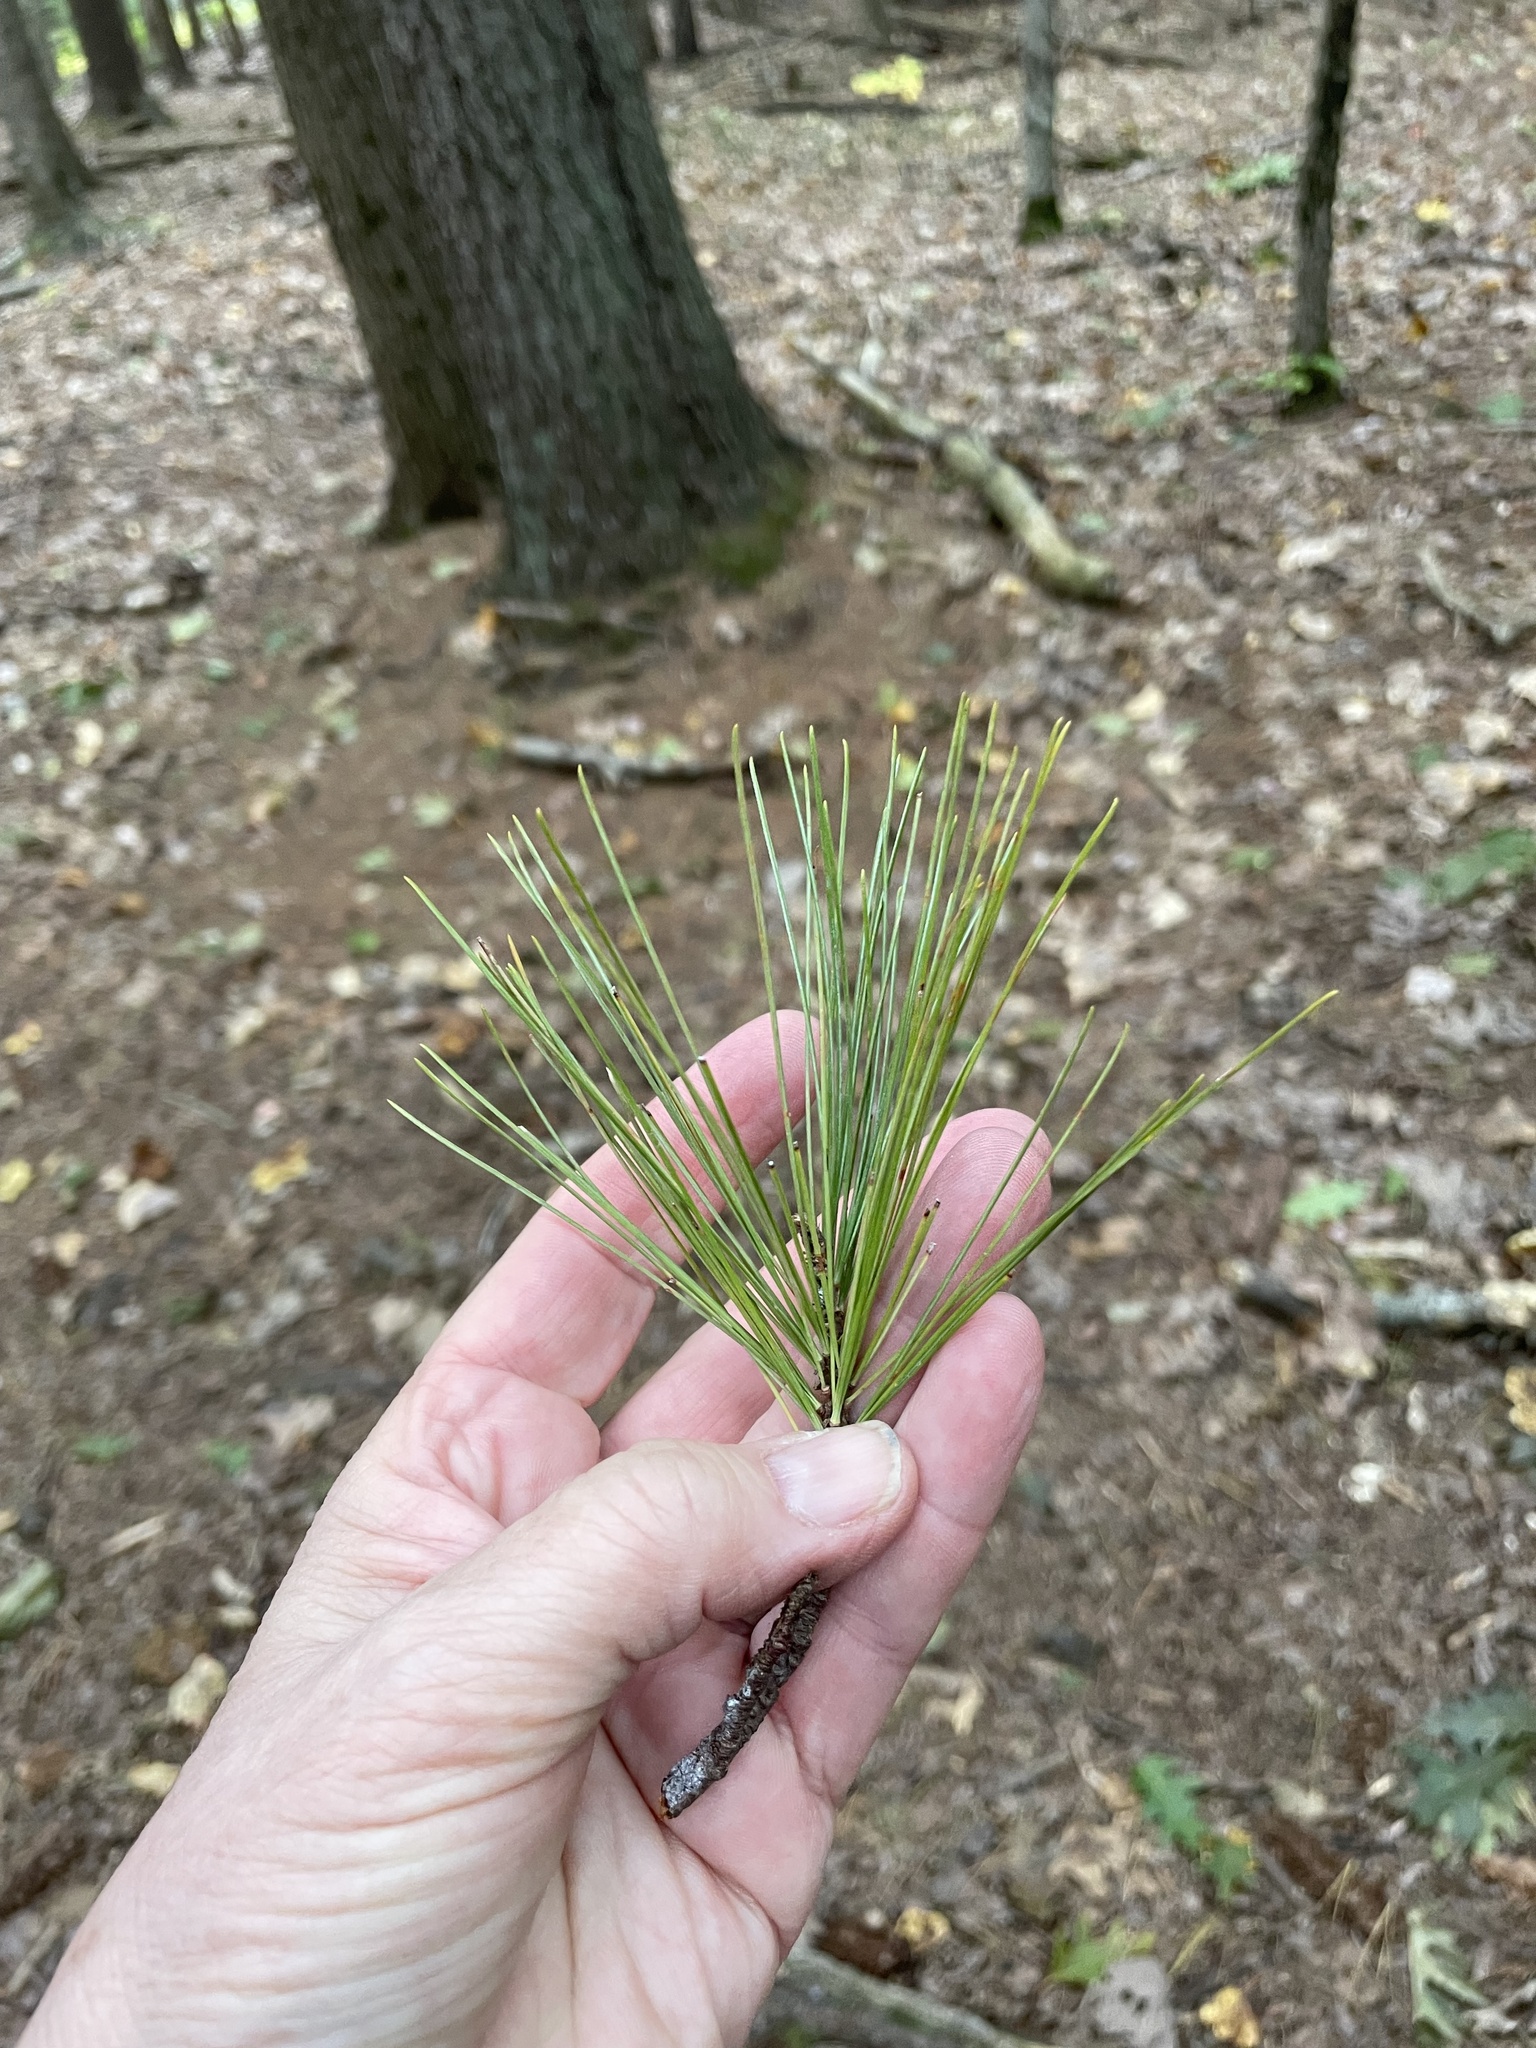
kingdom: Plantae
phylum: Tracheophyta
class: Pinopsida
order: Pinales
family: Pinaceae
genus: Pinus
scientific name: Pinus strobus
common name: Weymouth pine
